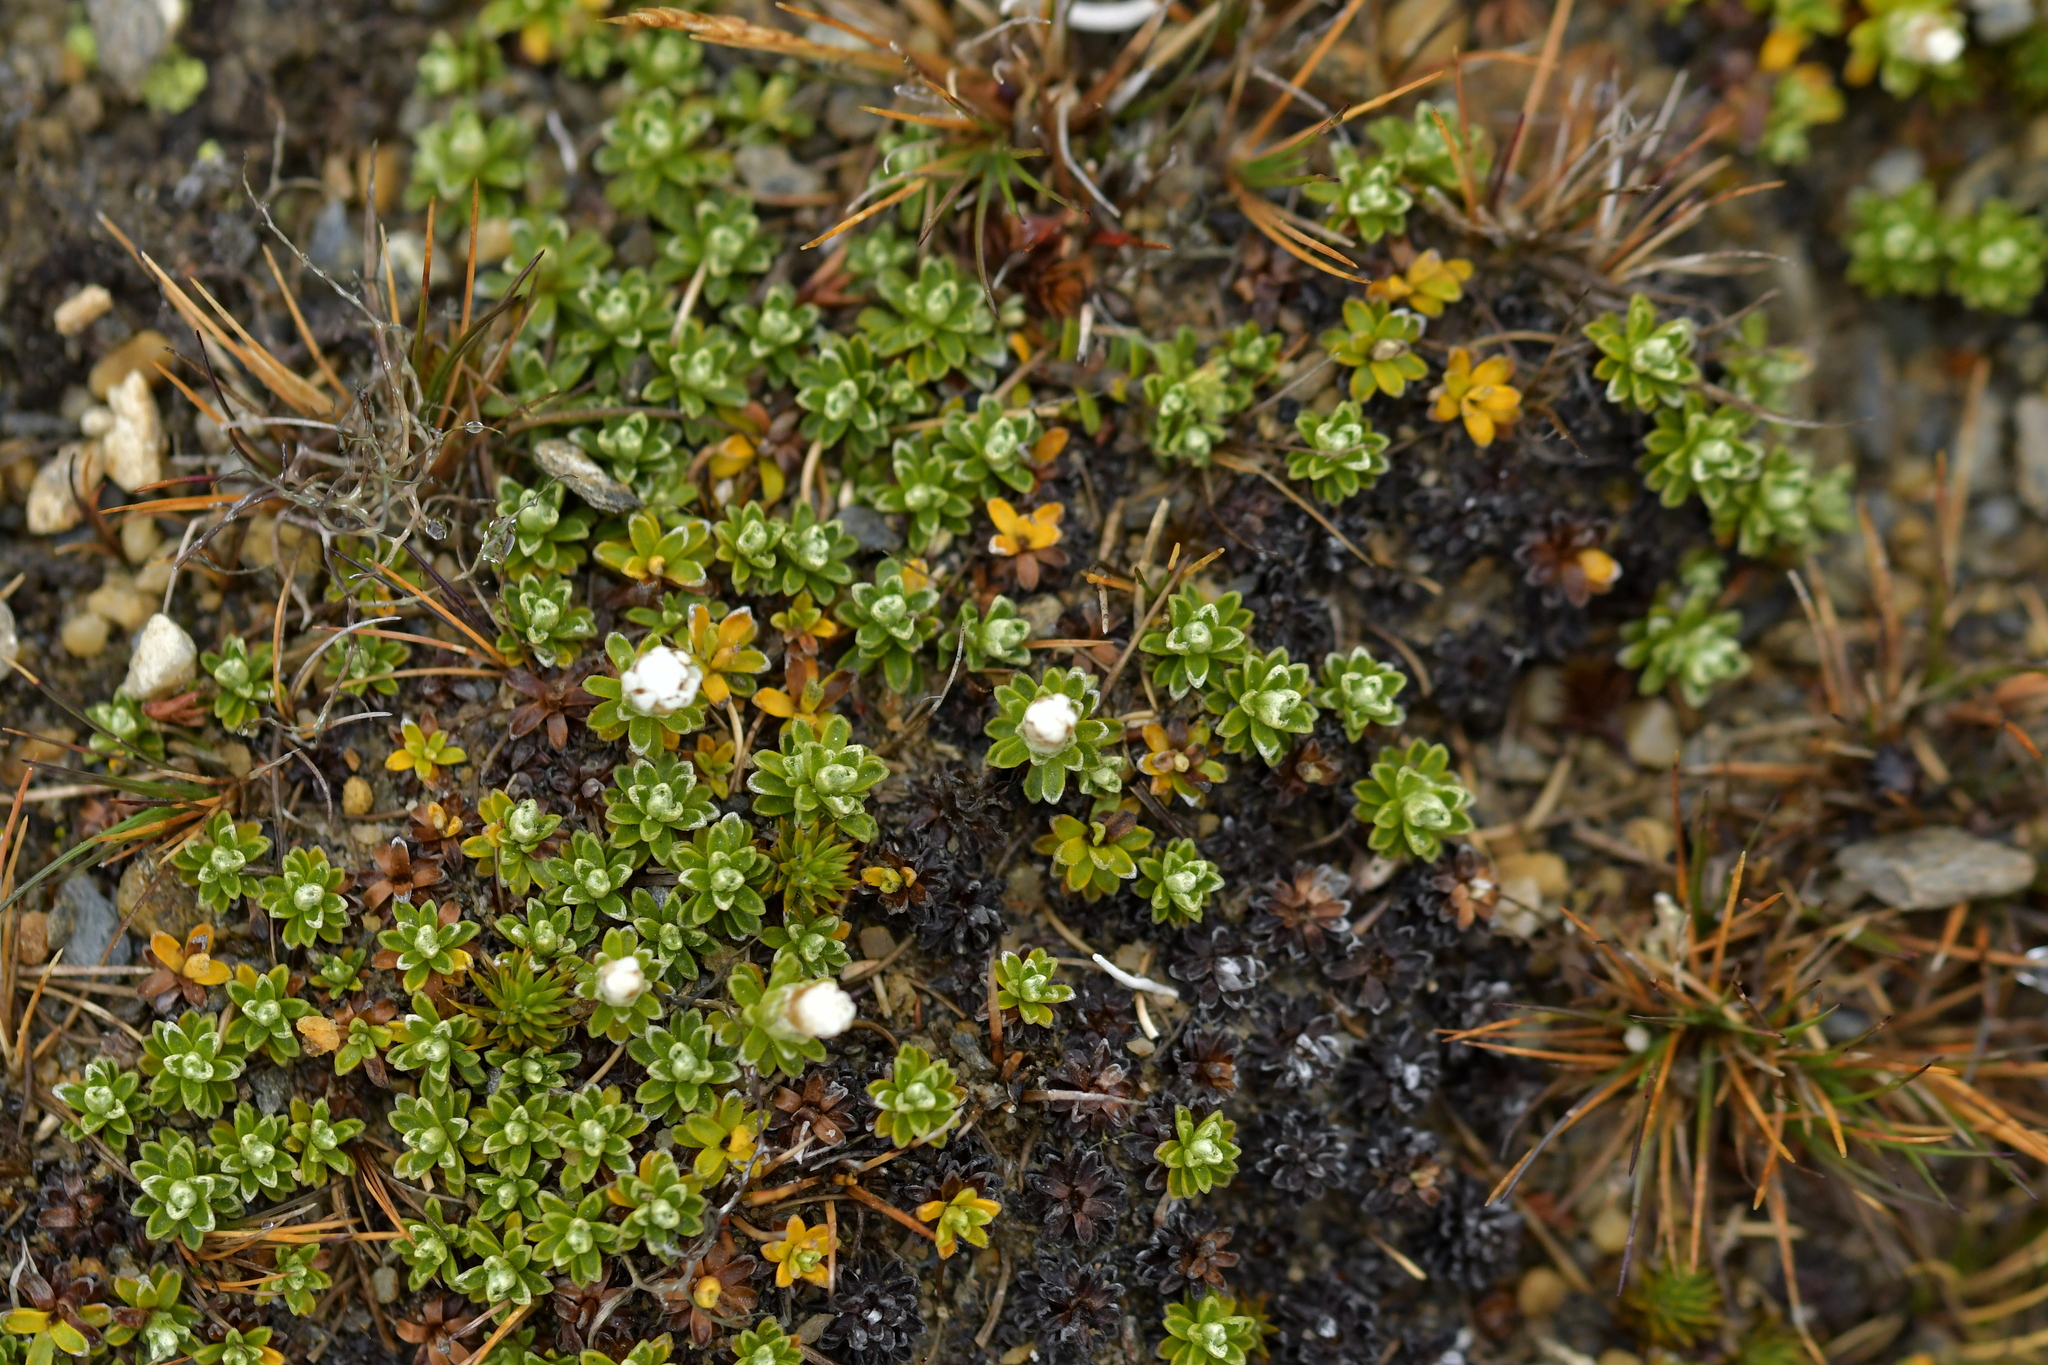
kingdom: Plantae
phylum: Tracheophyta
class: Magnoliopsida
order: Asterales
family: Asteraceae
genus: Raoulia
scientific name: Raoulia subsericea
